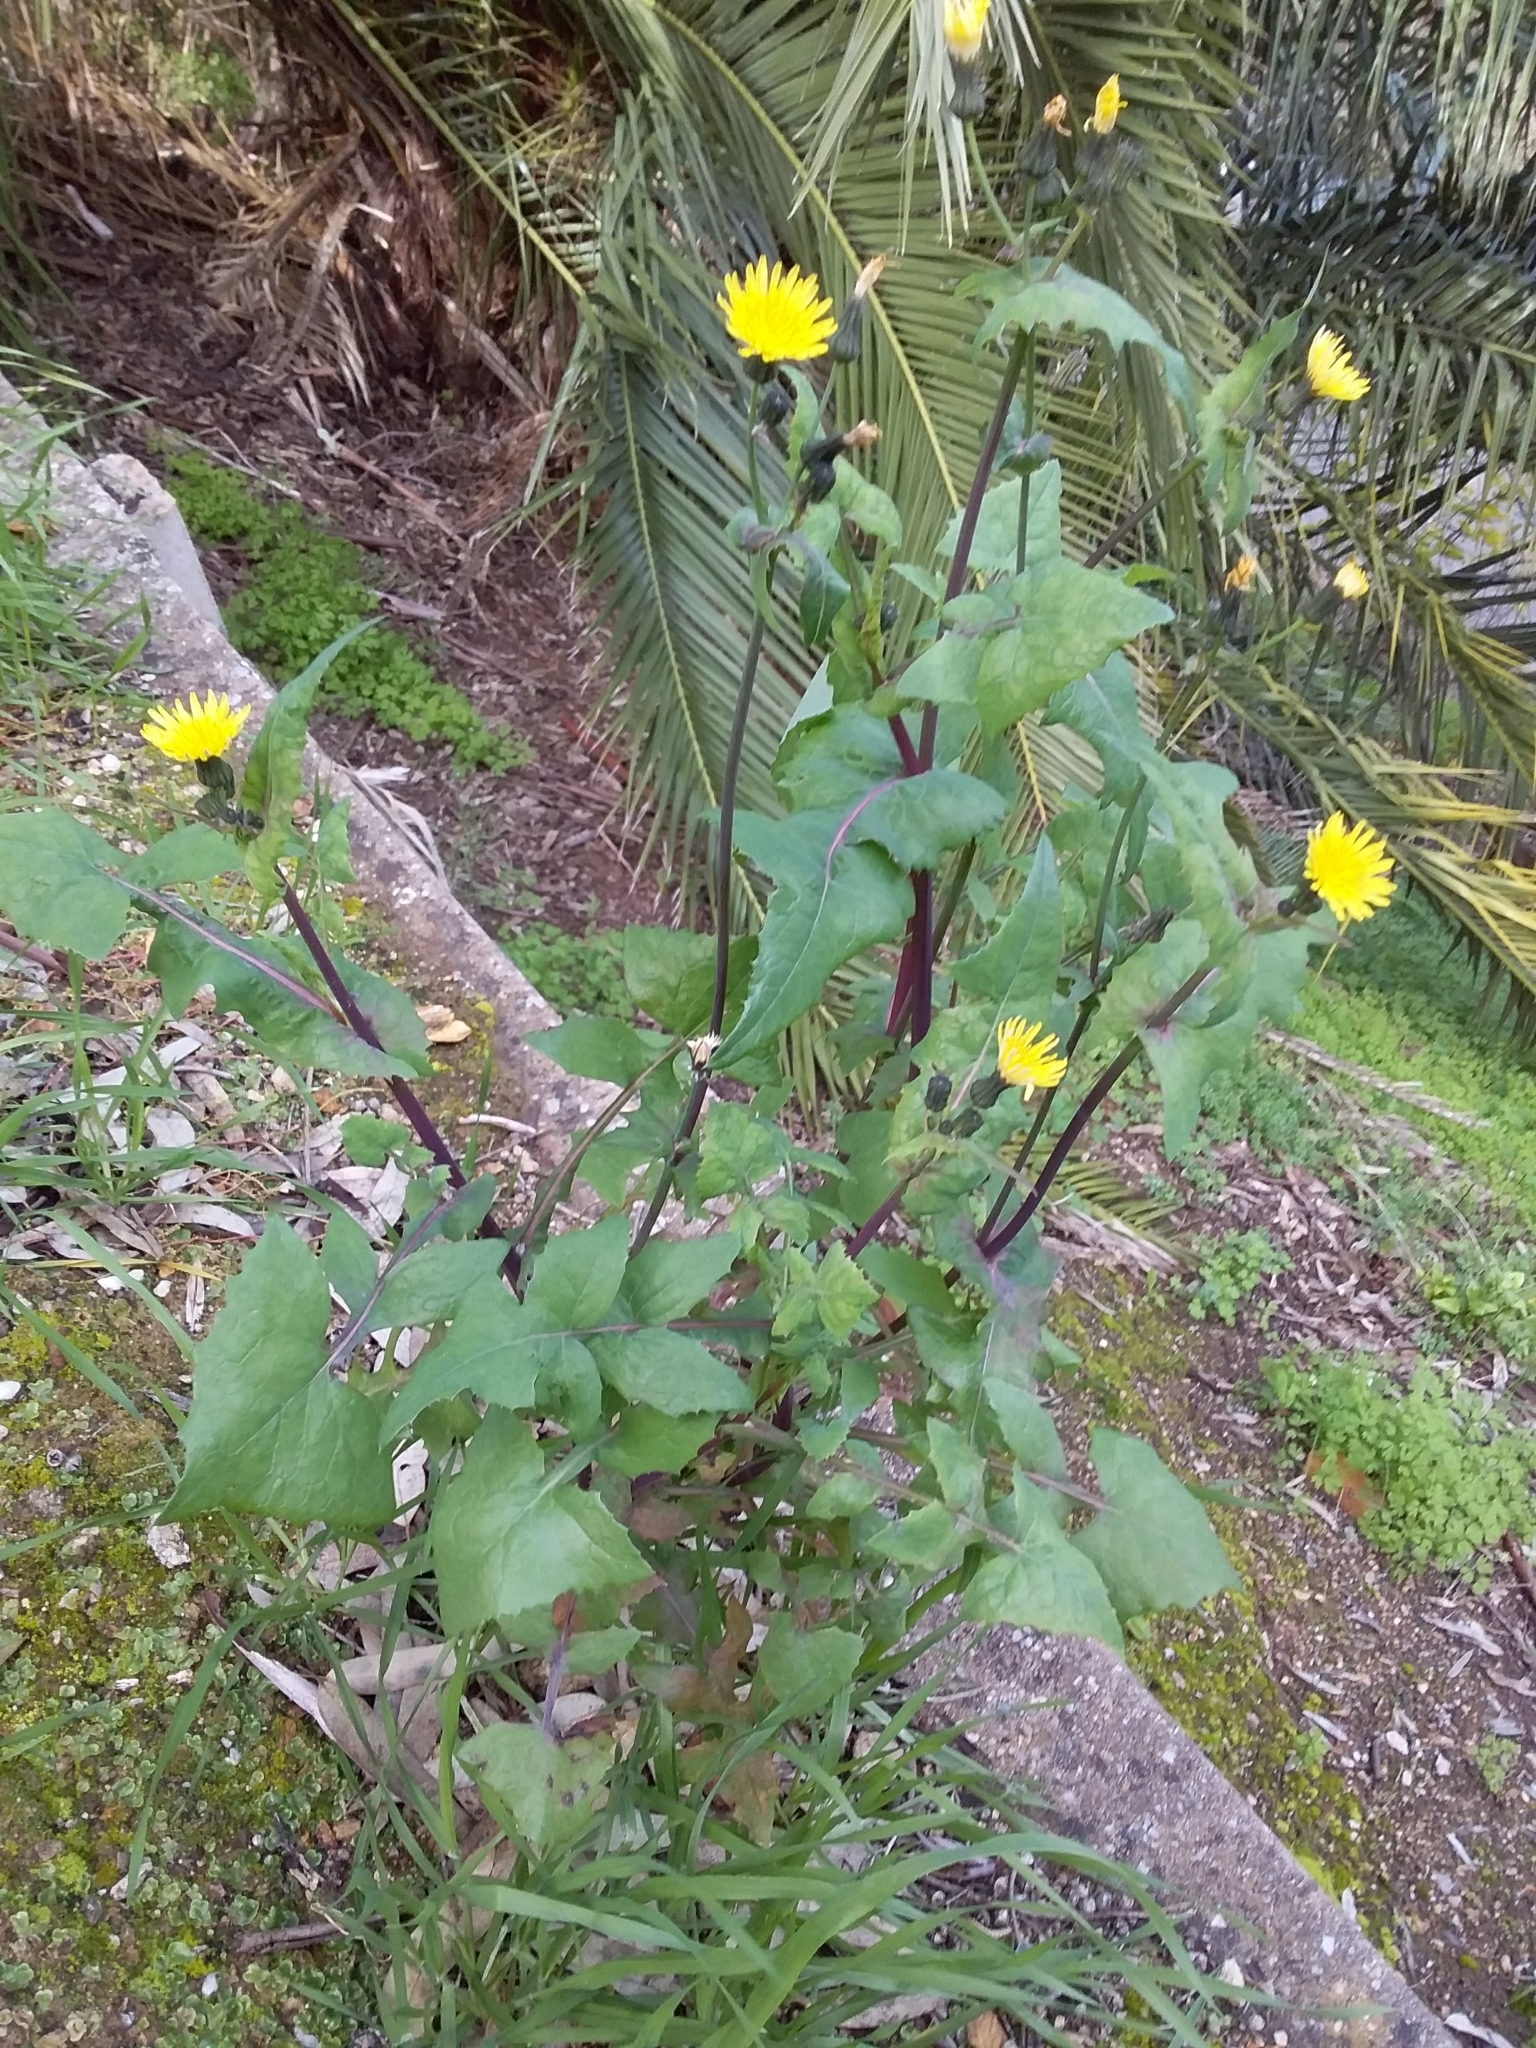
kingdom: Plantae
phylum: Tracheophyta
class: Magnoliopsida
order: Asterales
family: Asteraceae
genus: Sonchus
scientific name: Sonchus oleraceus
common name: Common sowthistle
